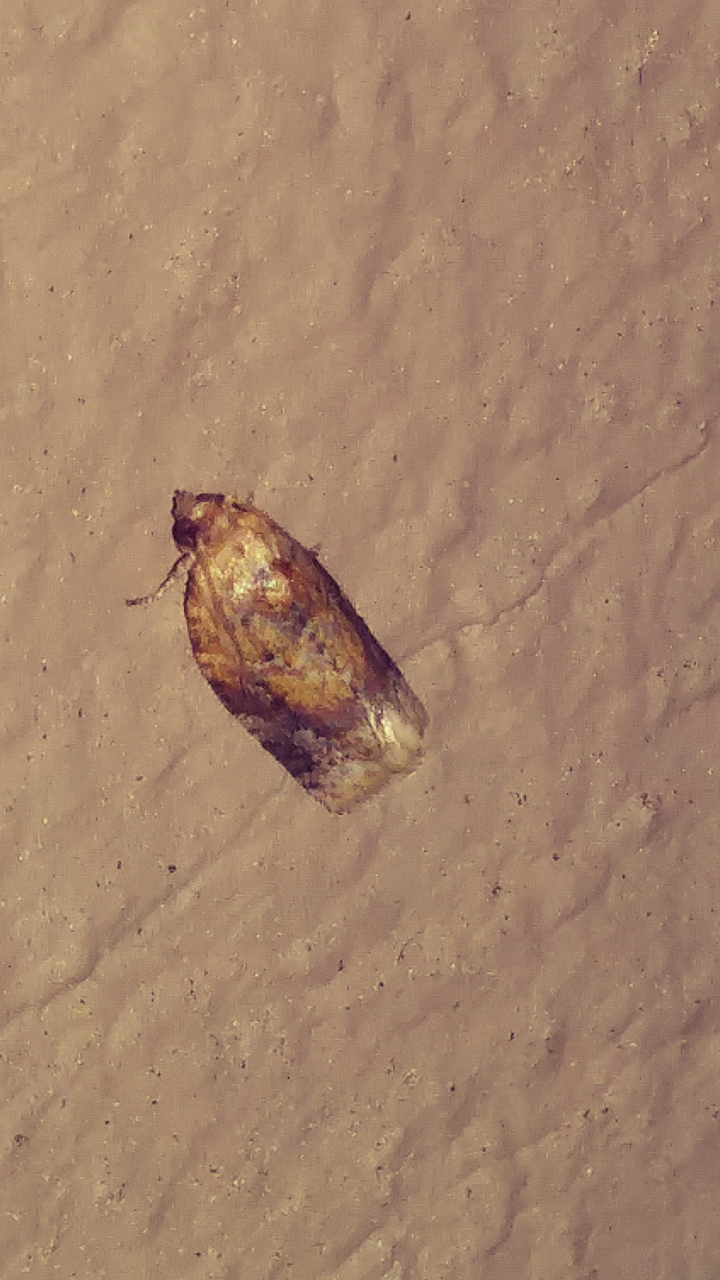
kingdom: Animalia
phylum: Arthropoda
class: Insecta
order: Lepidoptera
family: Tortricidae
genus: Argyrotaenia
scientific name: Argyrotaenia velutinana
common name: Red-banded leafroller moth
